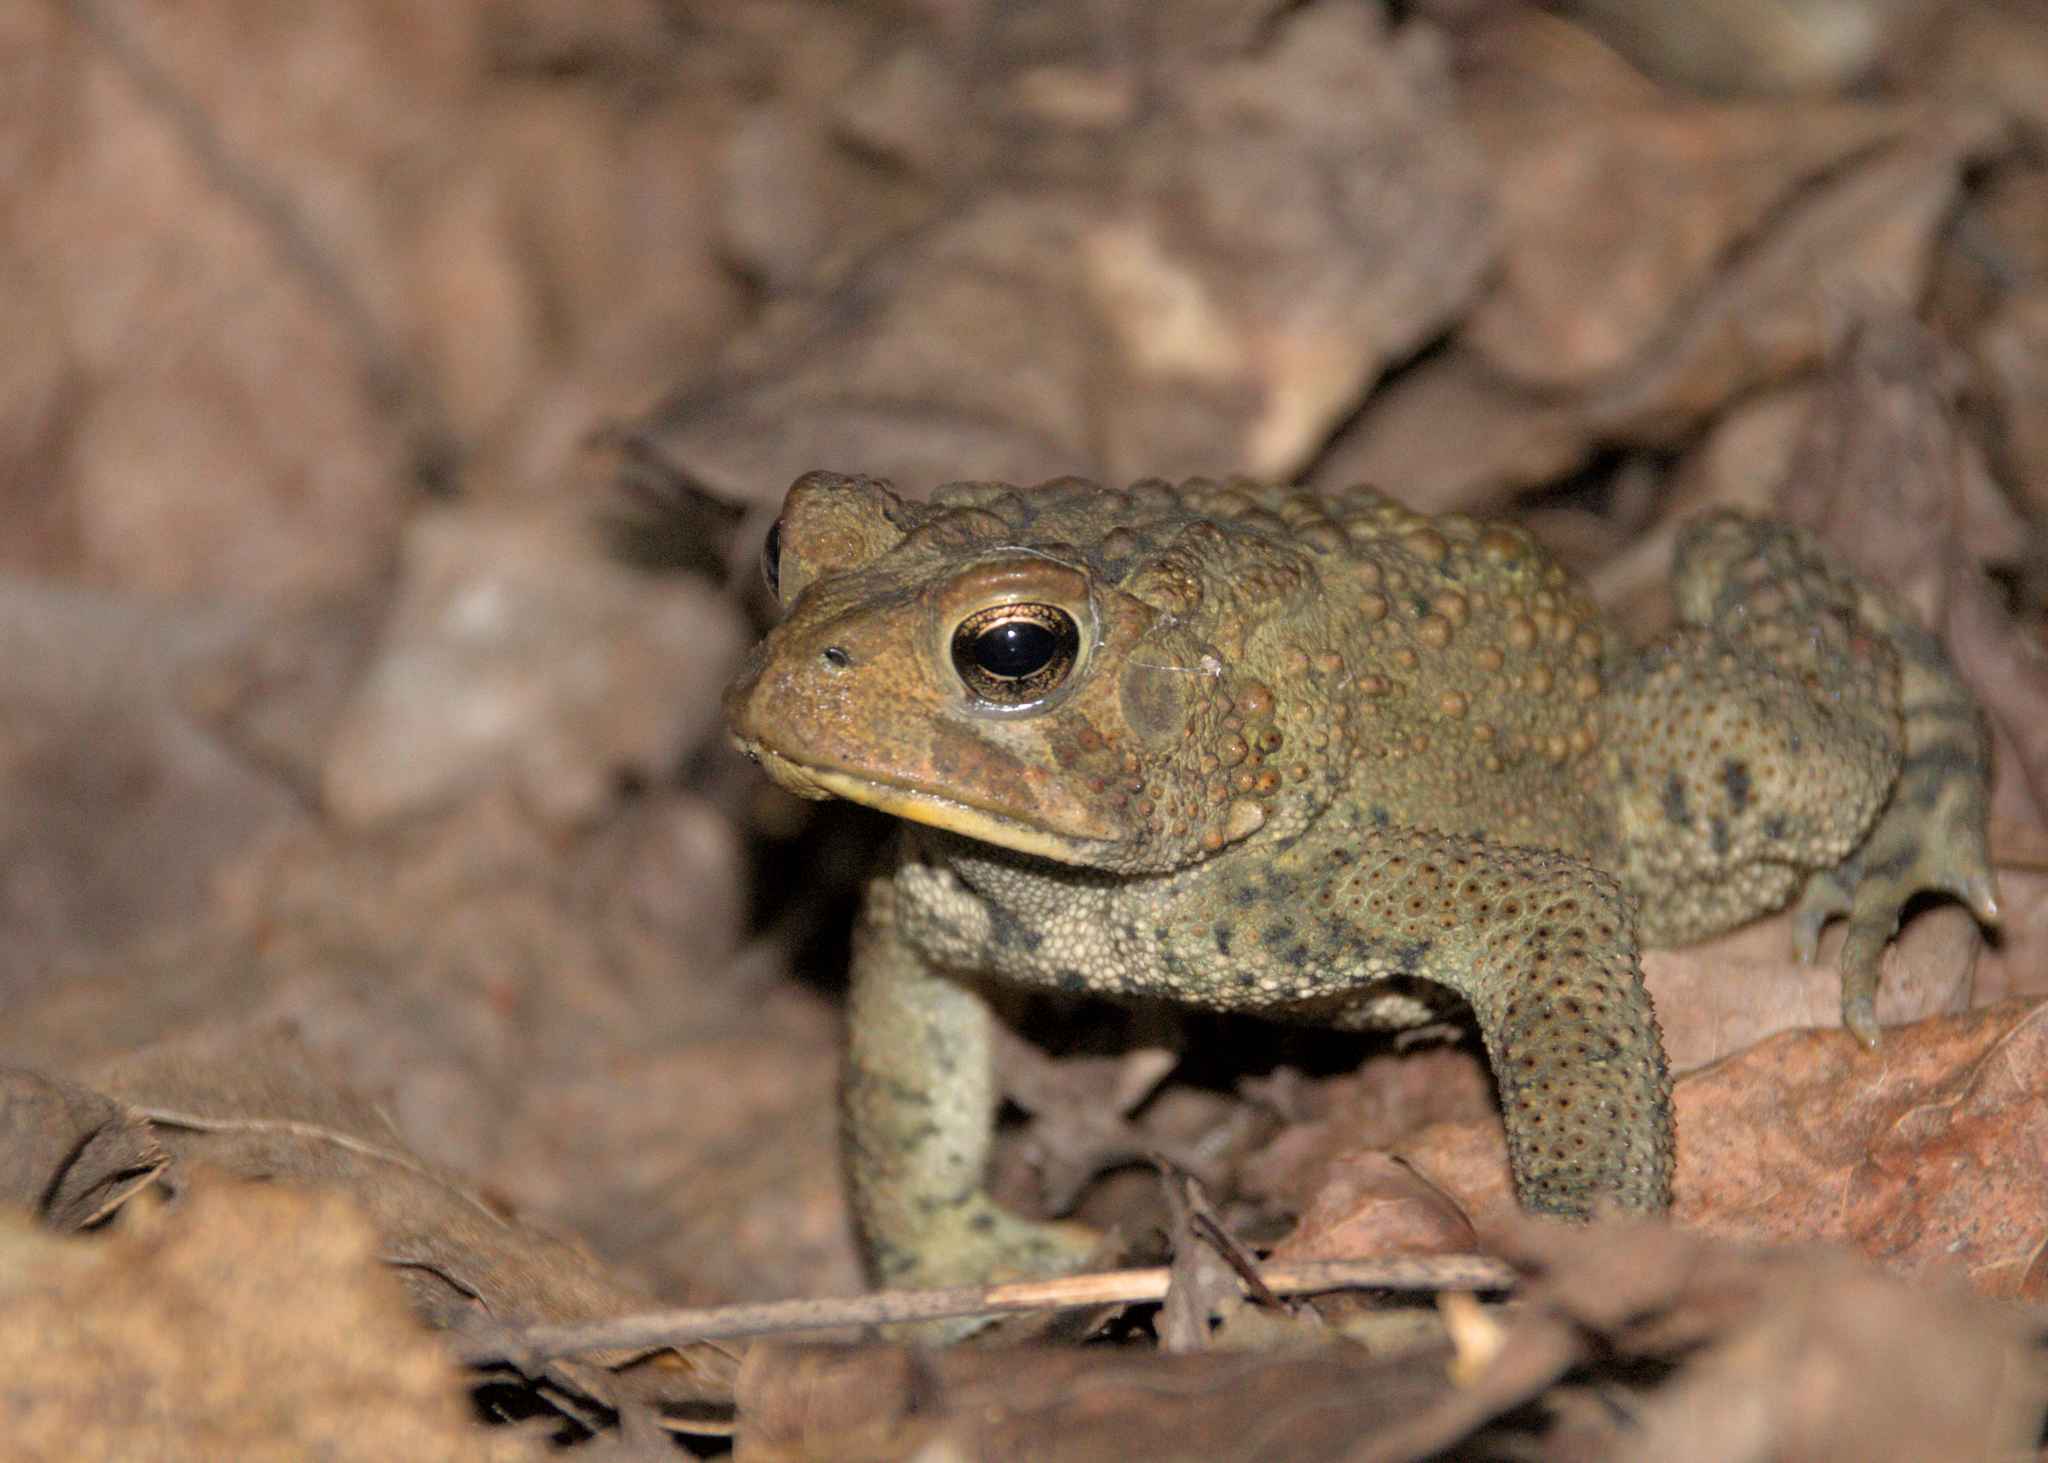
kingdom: Animalia
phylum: Chordata
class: Amphibia
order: Anura
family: Bufonidae
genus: Anaxyrus
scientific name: Anaxyrus americanus
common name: American toad
